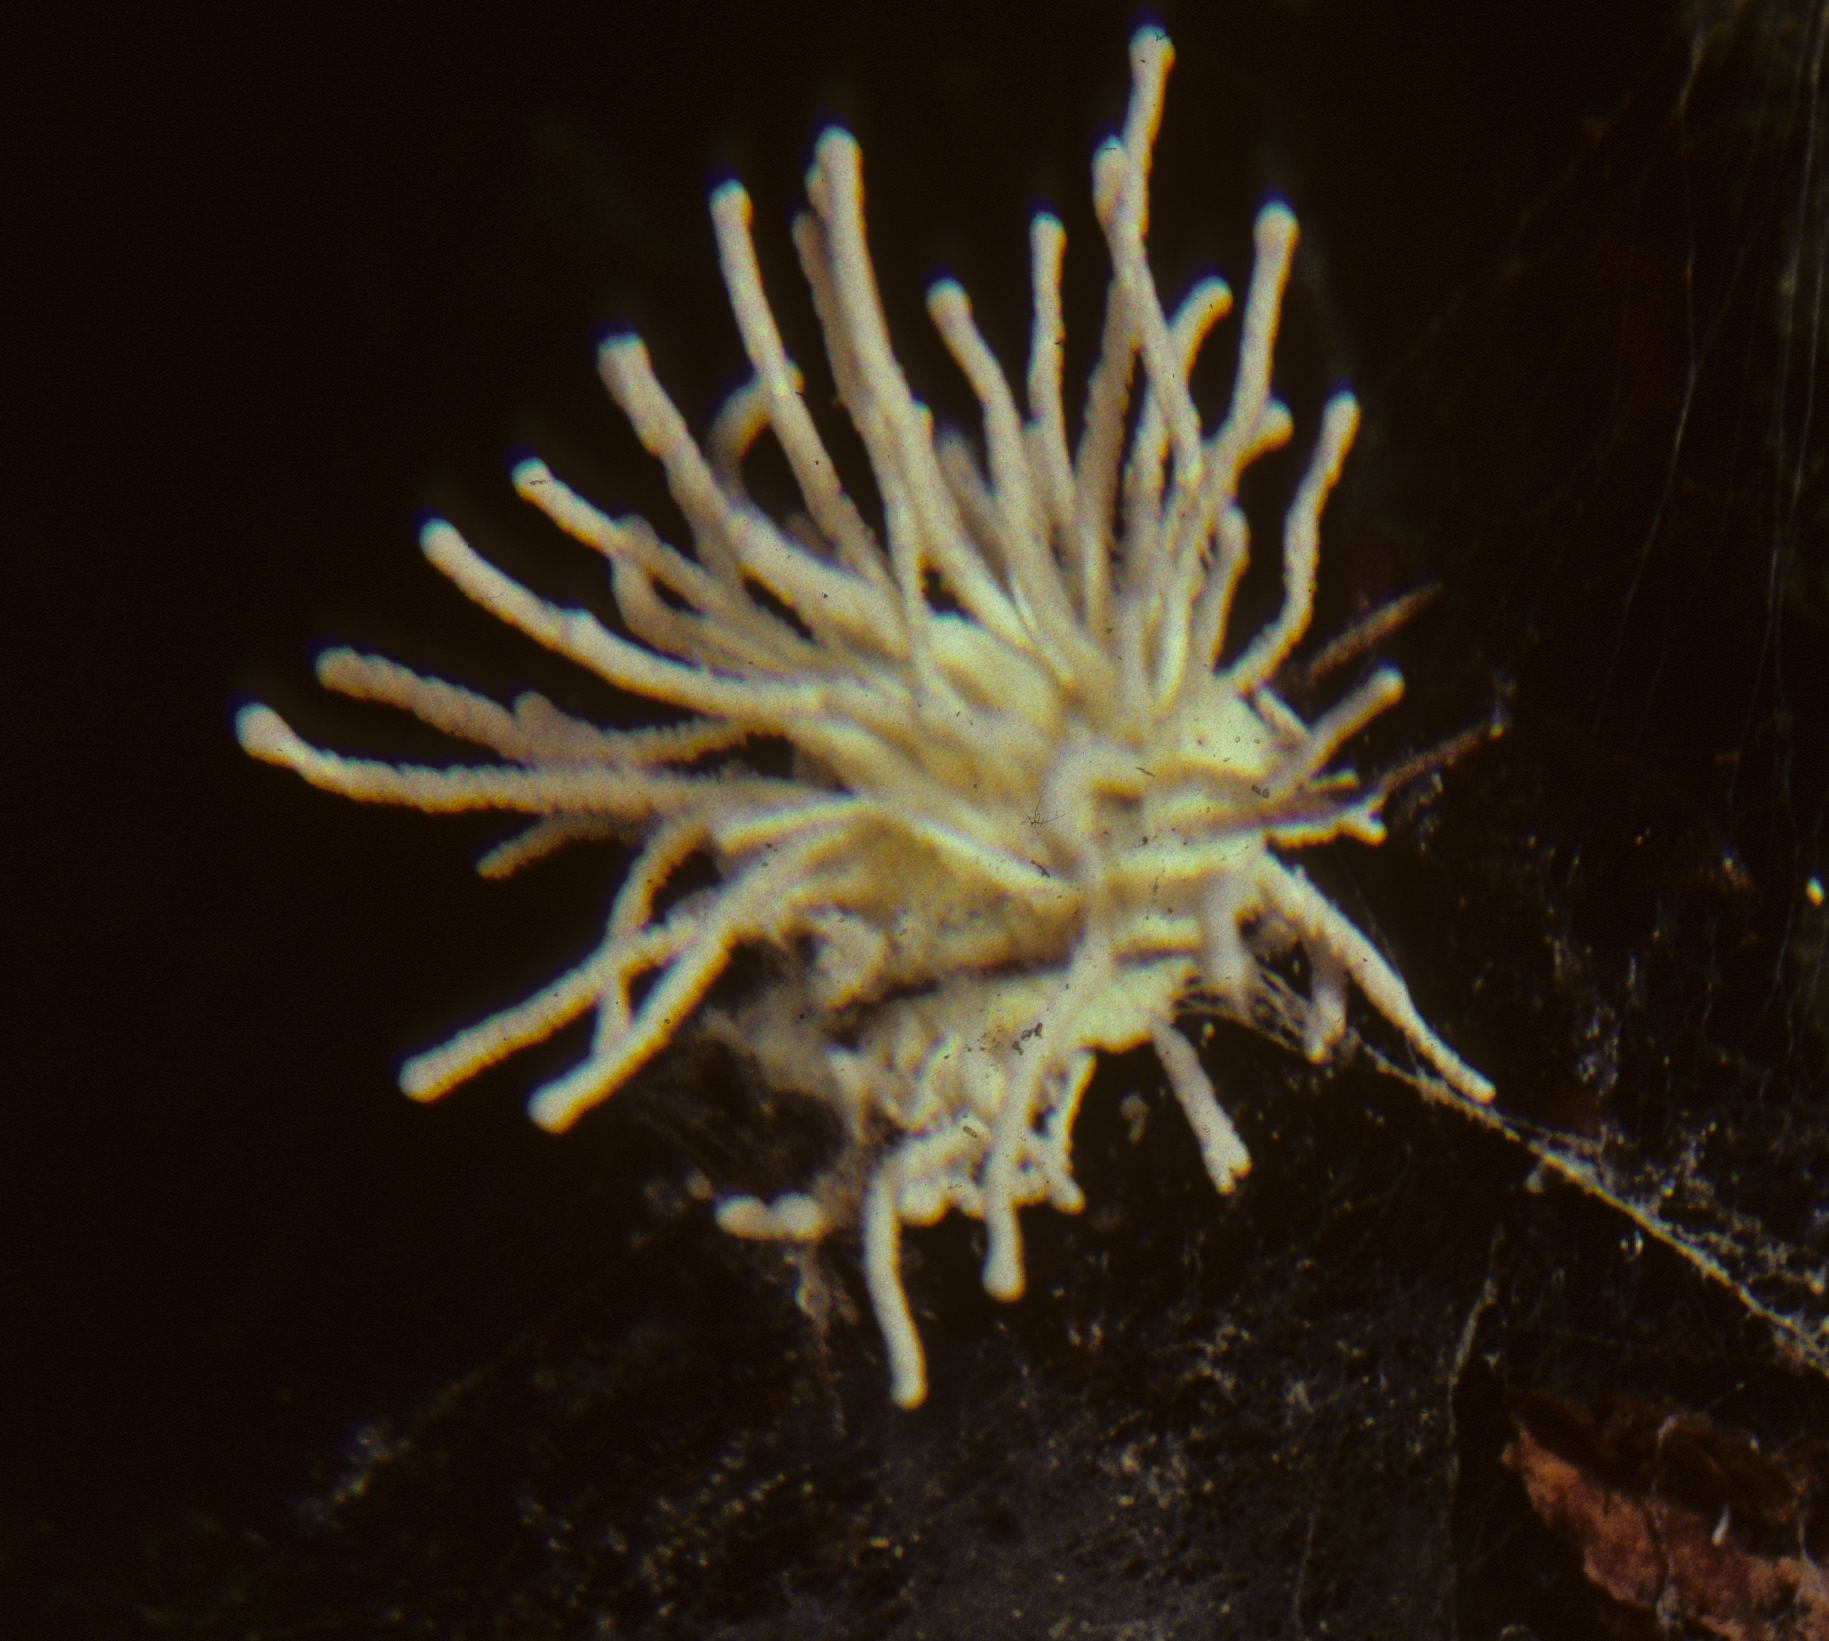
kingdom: Fungi
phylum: Ascomycota
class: Sordariomycetes
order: Hypocreales
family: Cordycipitaceae
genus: Gibellula
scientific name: Gibellula arachnophila
